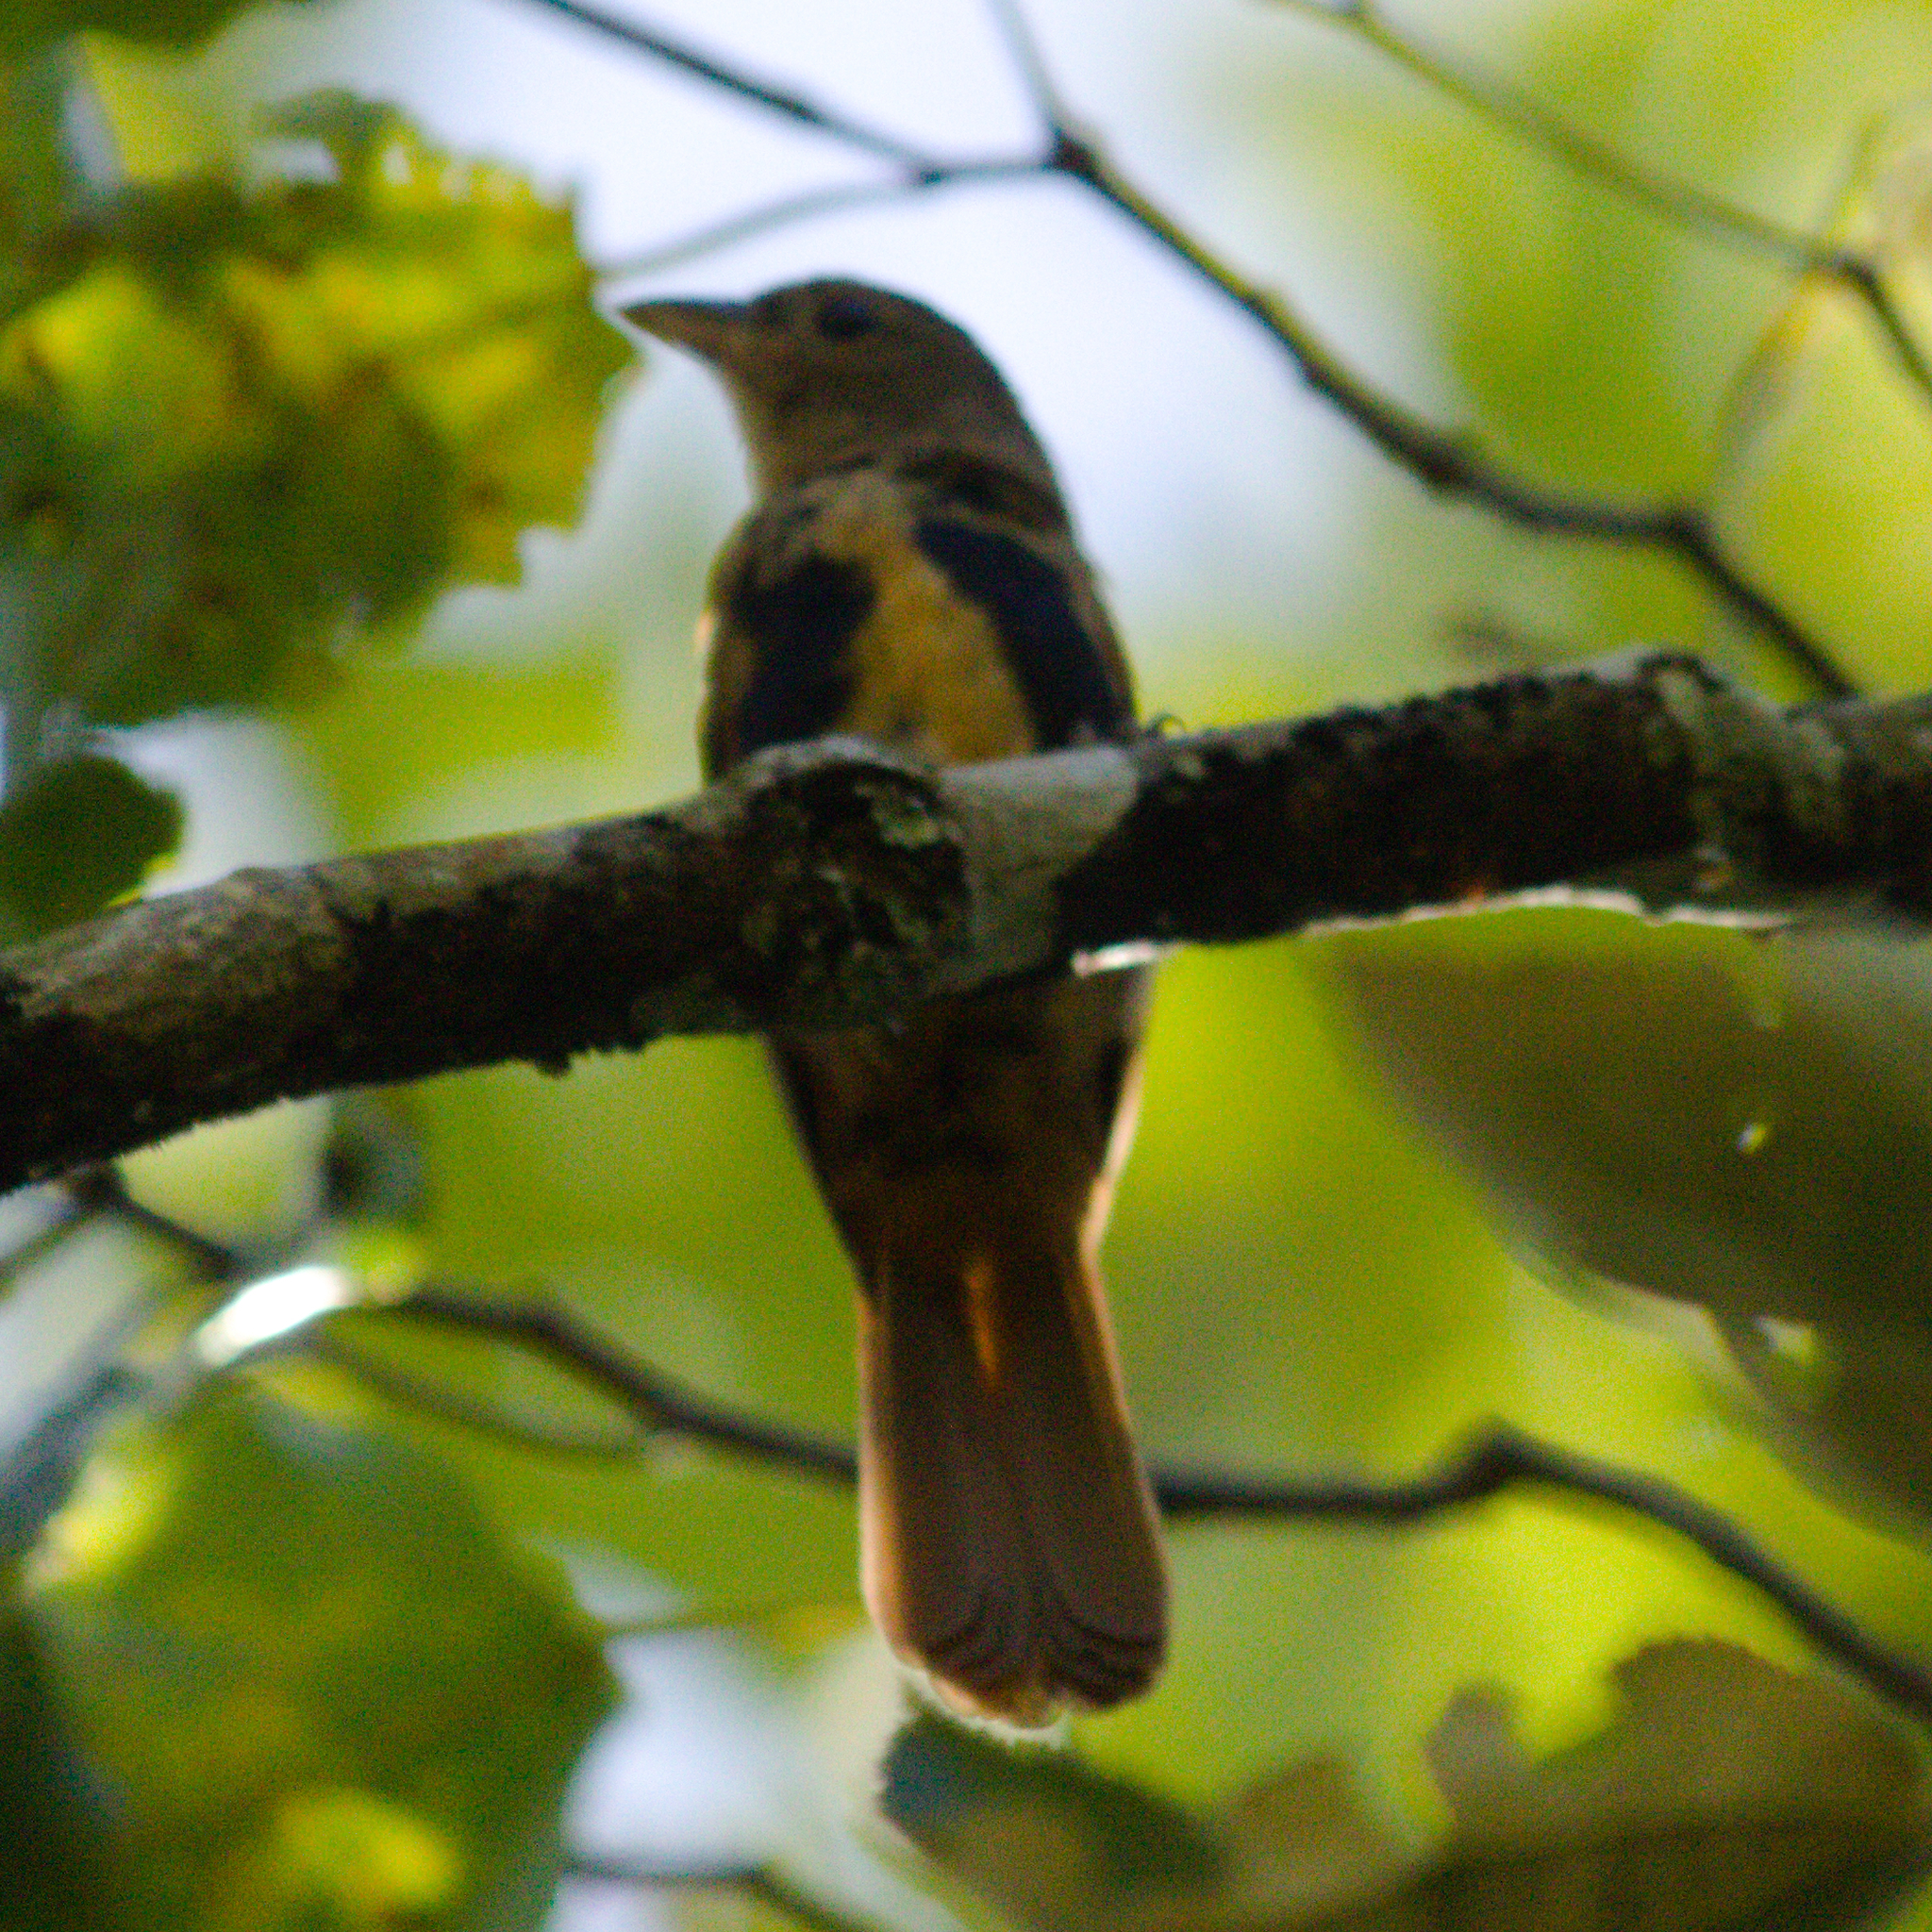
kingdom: Animalia
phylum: Chordata
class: Aves
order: Passeriformes
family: Thraupidae
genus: Tachyphonus
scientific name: Tachyphonus coronatus
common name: Ruby-crowned tanager
